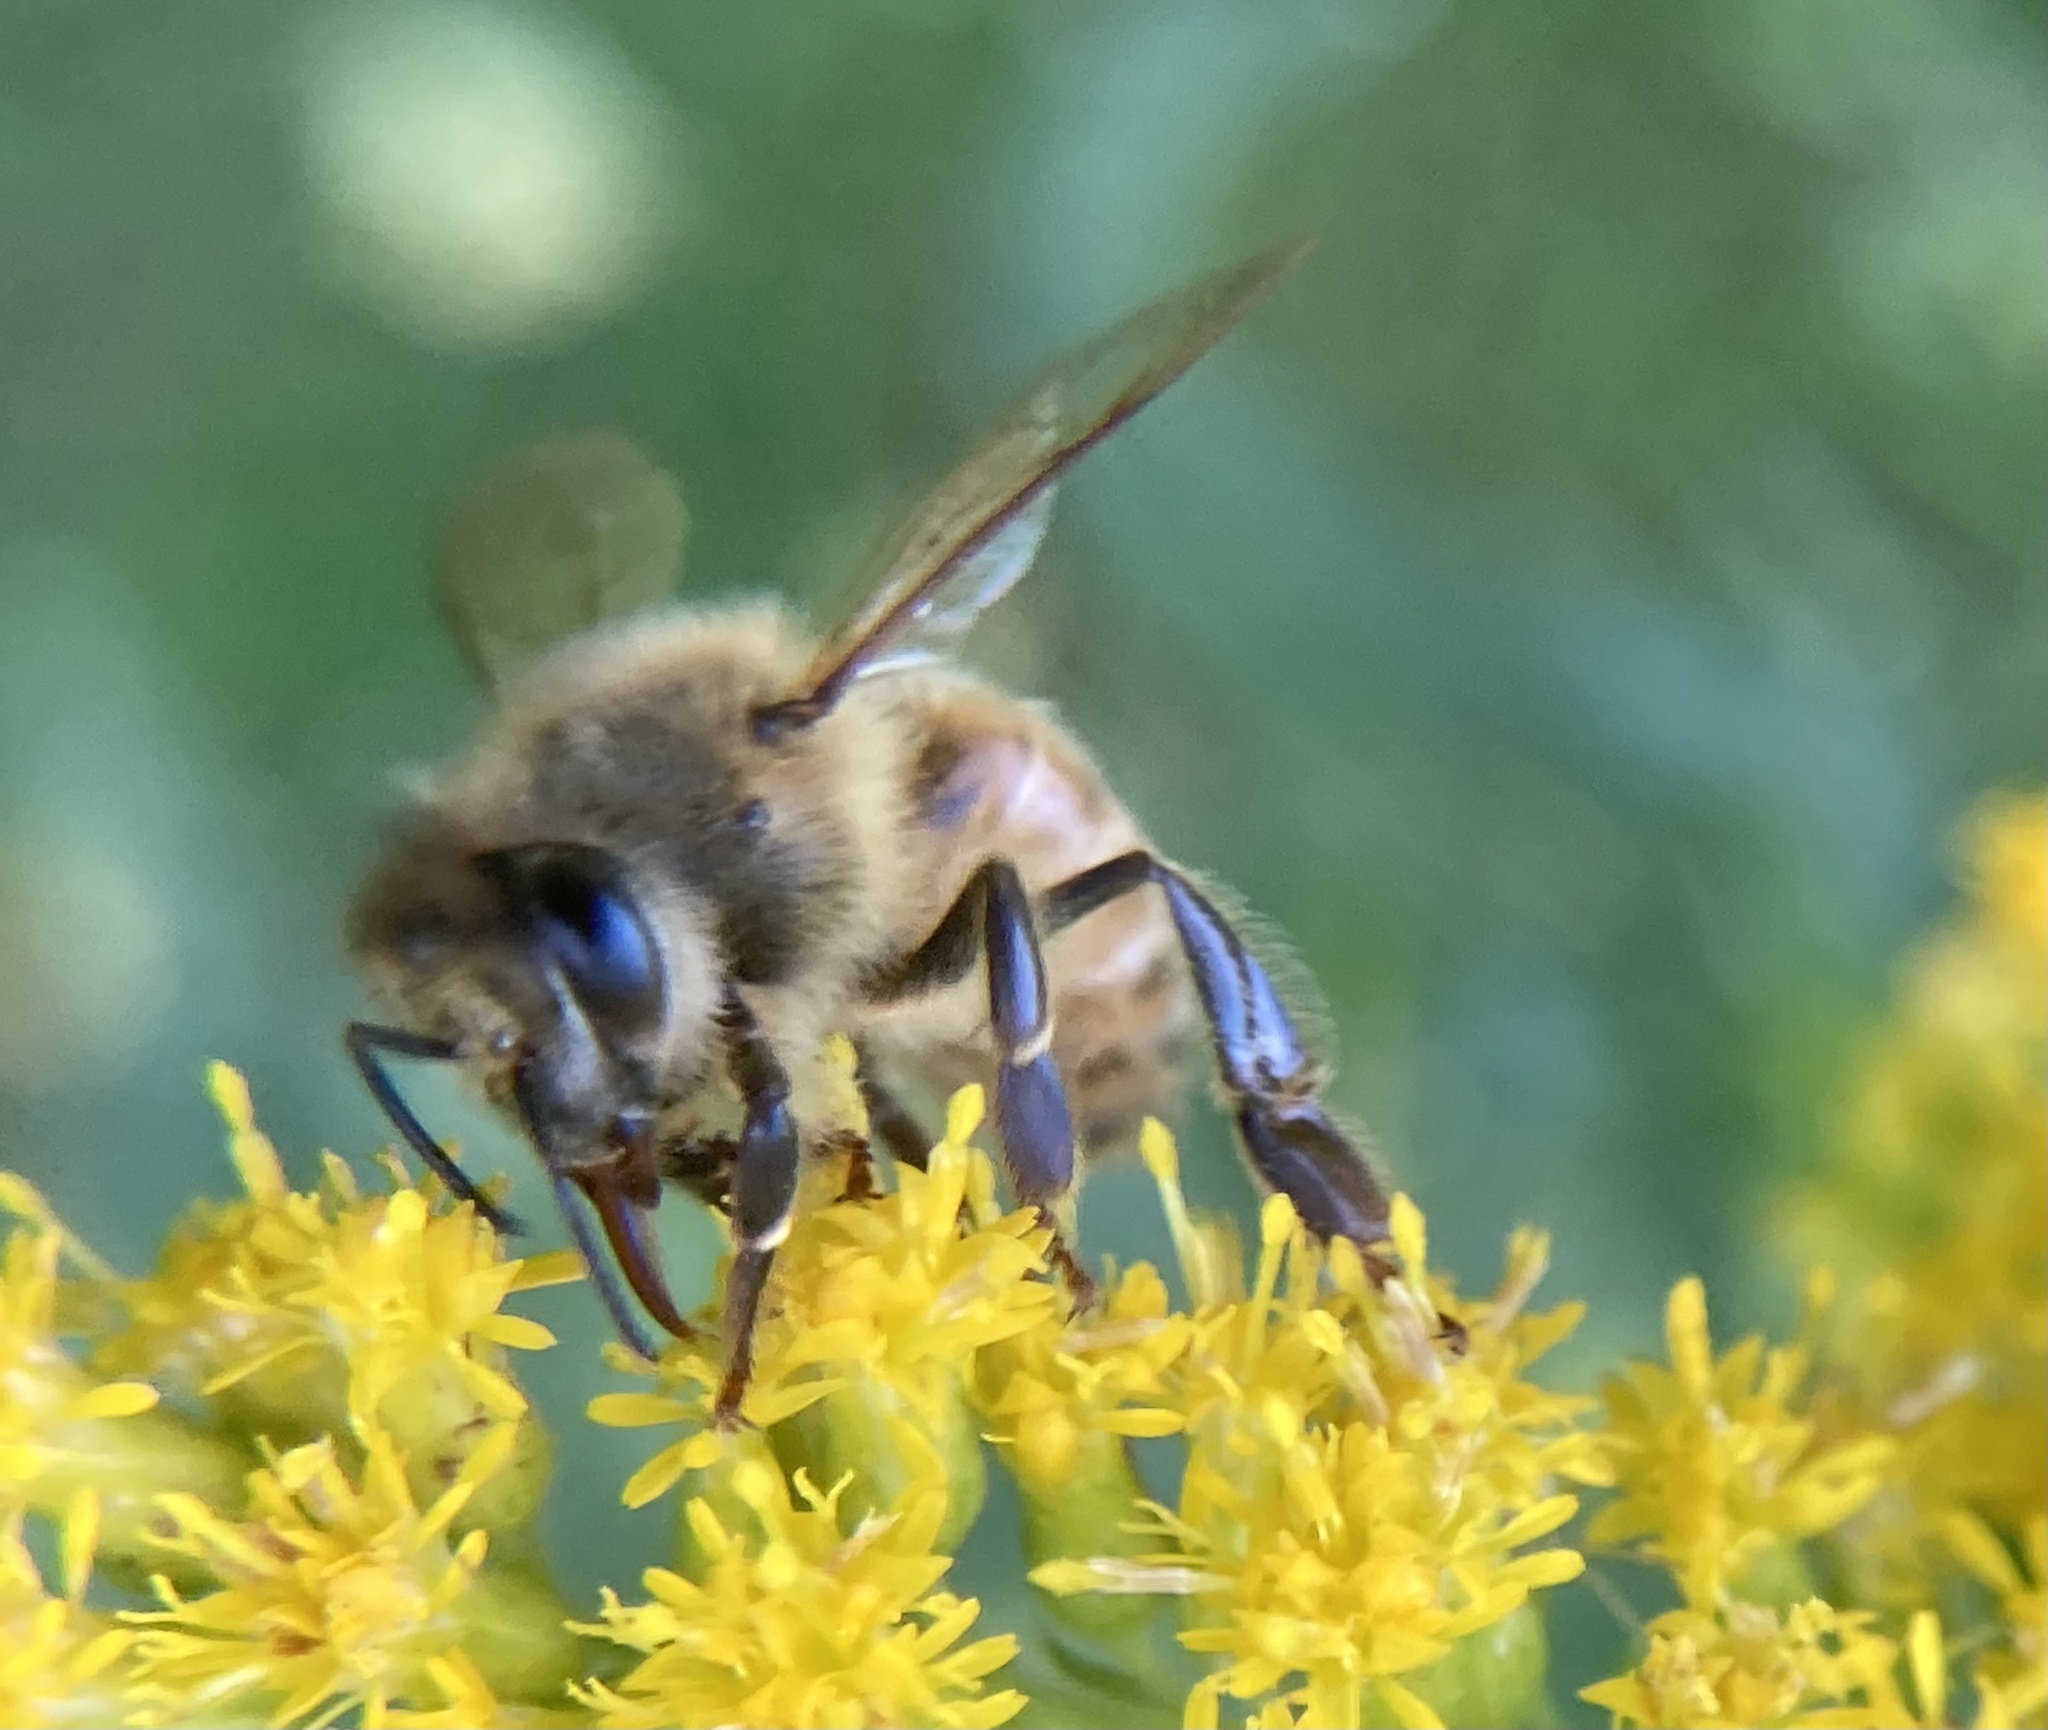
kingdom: Animalia
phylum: Arthropoda
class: Insecta
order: Hymenoptera
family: Apidae
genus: Apis
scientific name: Apis mellifera
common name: Honey bee
